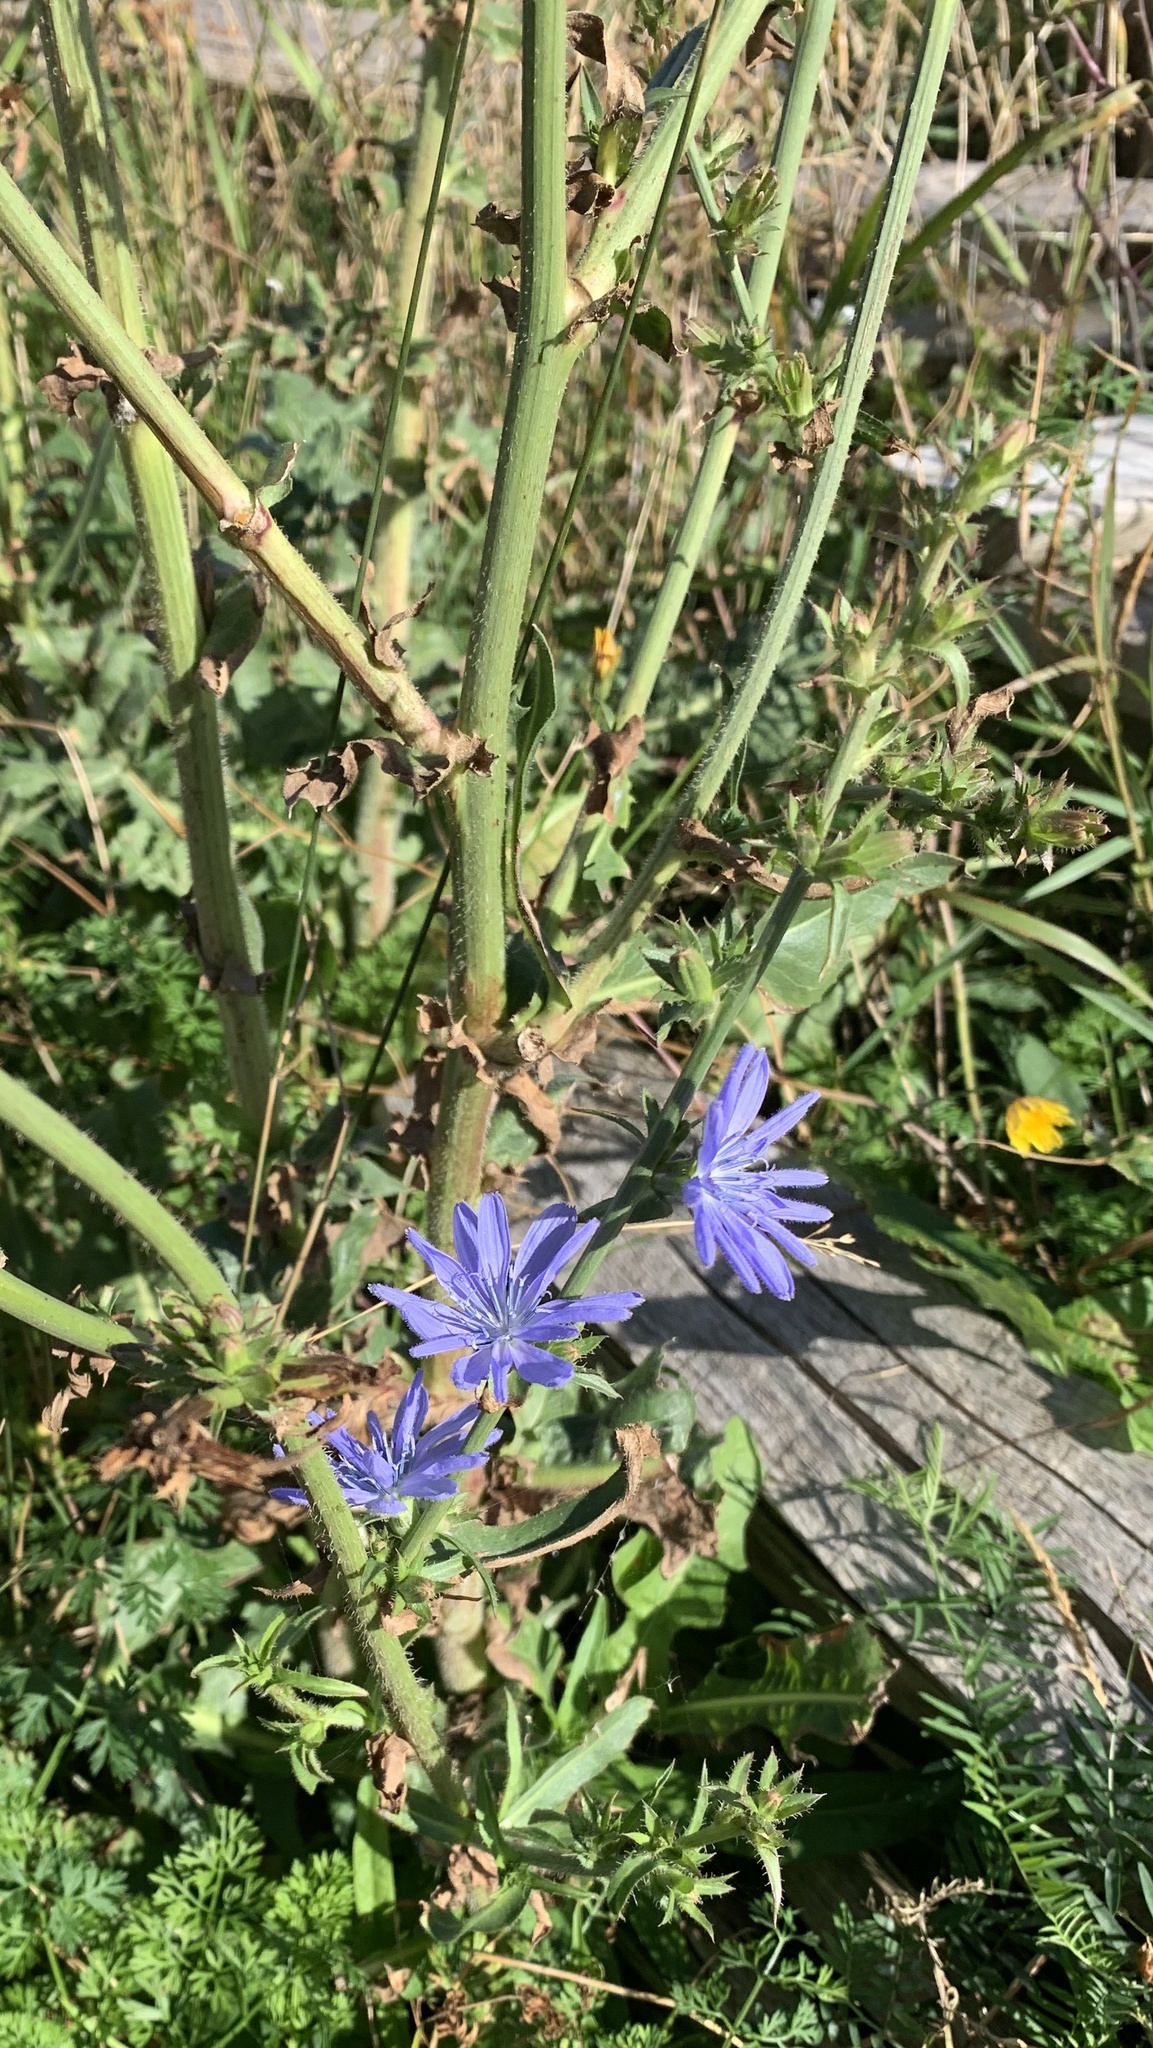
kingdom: Plantae
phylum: Tracheophyta
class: Magnoliopsida
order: Asterales
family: Asteraceae
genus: Cichorium
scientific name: Cichorium intybus
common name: Chicory
